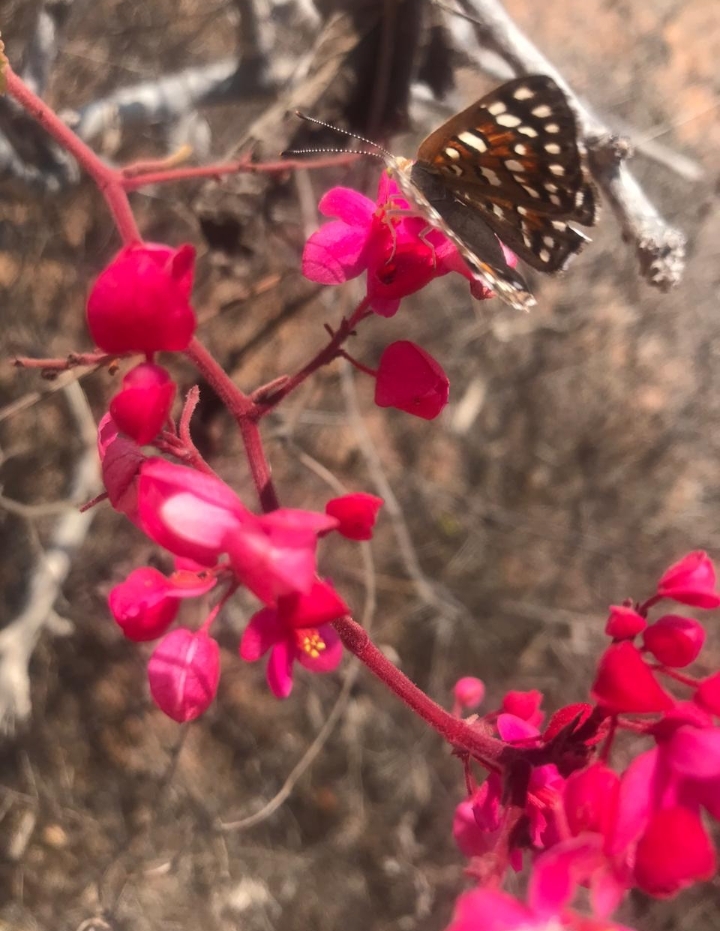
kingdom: Animalia
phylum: Arthropoda
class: Insecta
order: Lepidoptera
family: Riodinidae
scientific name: Riodinidae
